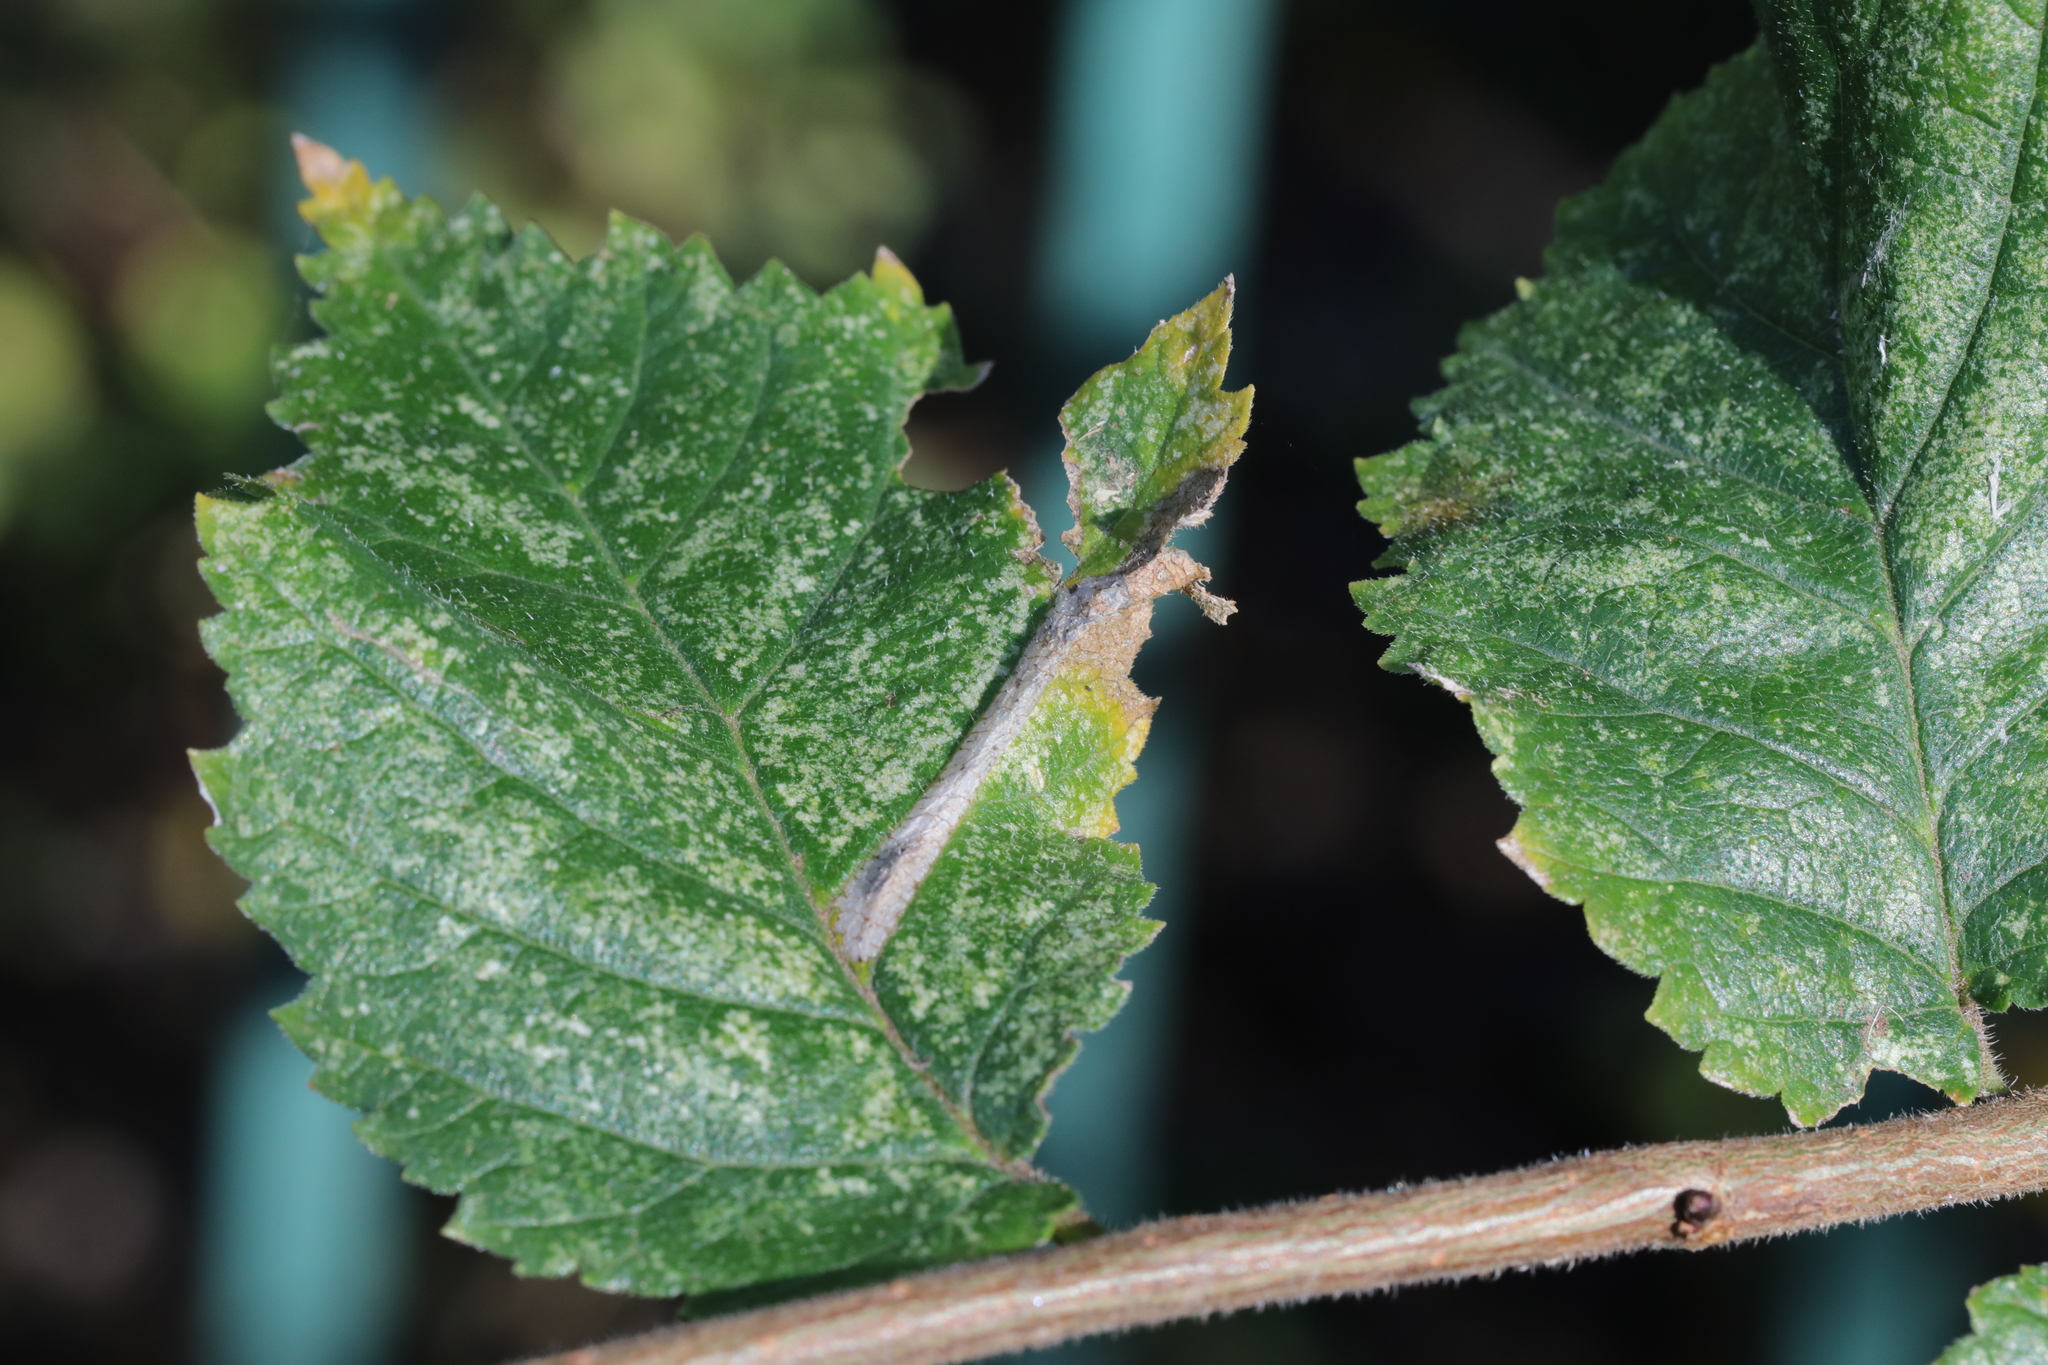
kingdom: Animalia
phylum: Arthropoda
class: Insecta
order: Lepidoptera
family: Gracillariidae
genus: Phyllonorycter
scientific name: Phyllonorycter tristrigella
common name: Elm midget
